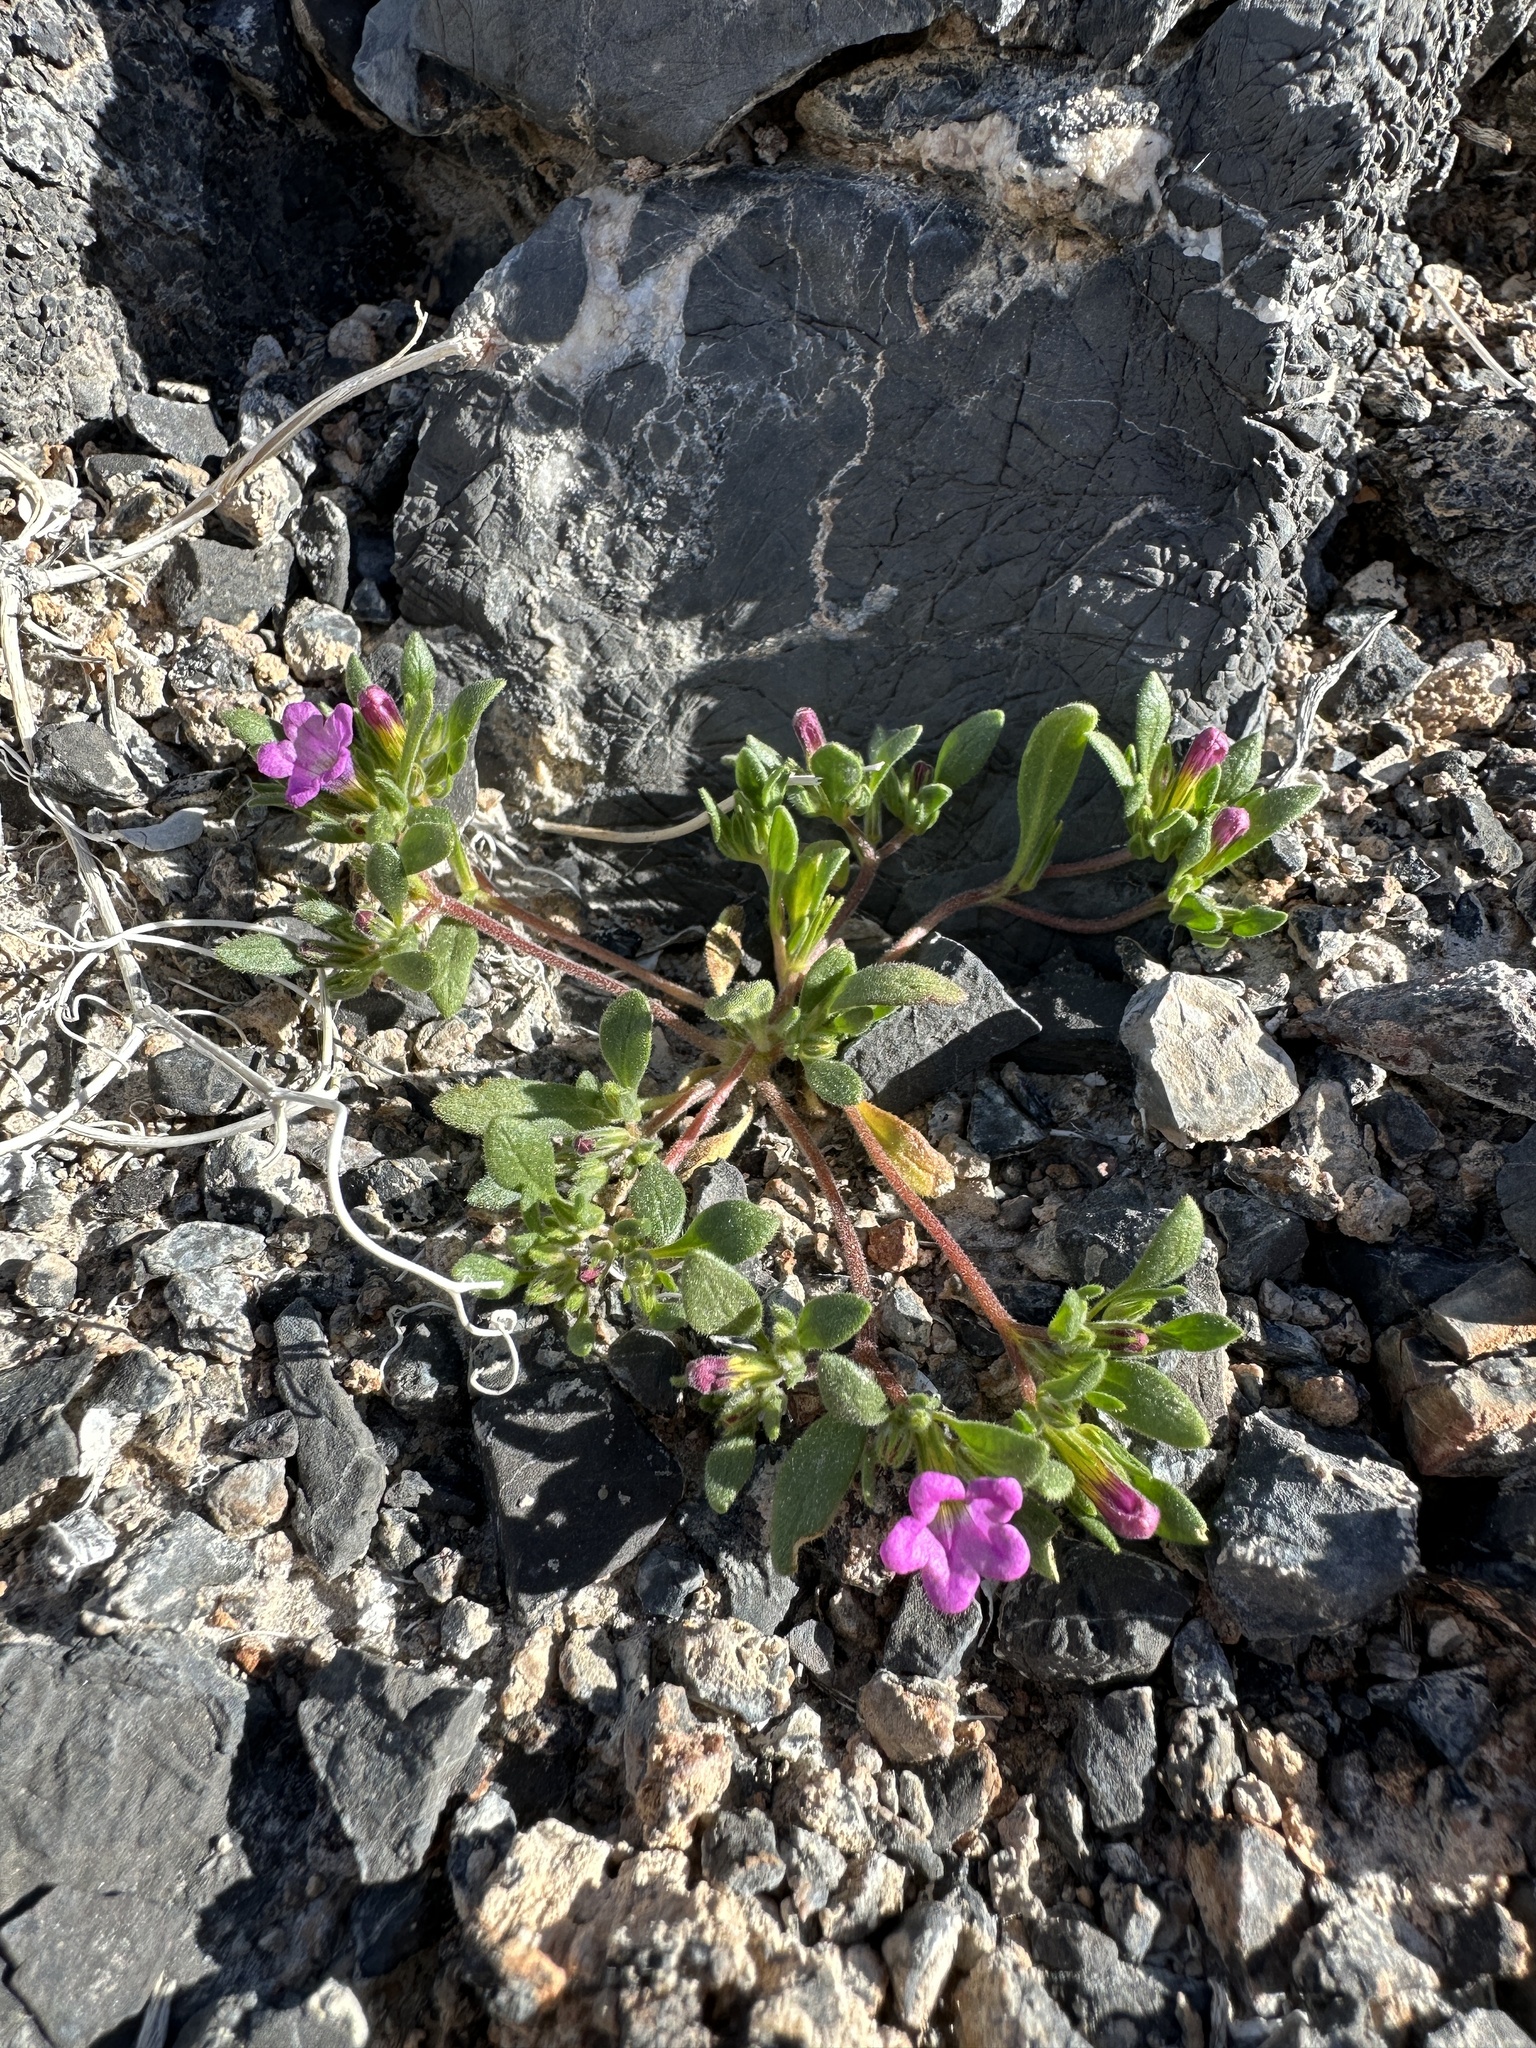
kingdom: Plantae
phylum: Tracheophyta
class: Magnoliopsida
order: Boraginales
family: Namaceae
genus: Nama
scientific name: Nama demissa
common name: Leafy nama
